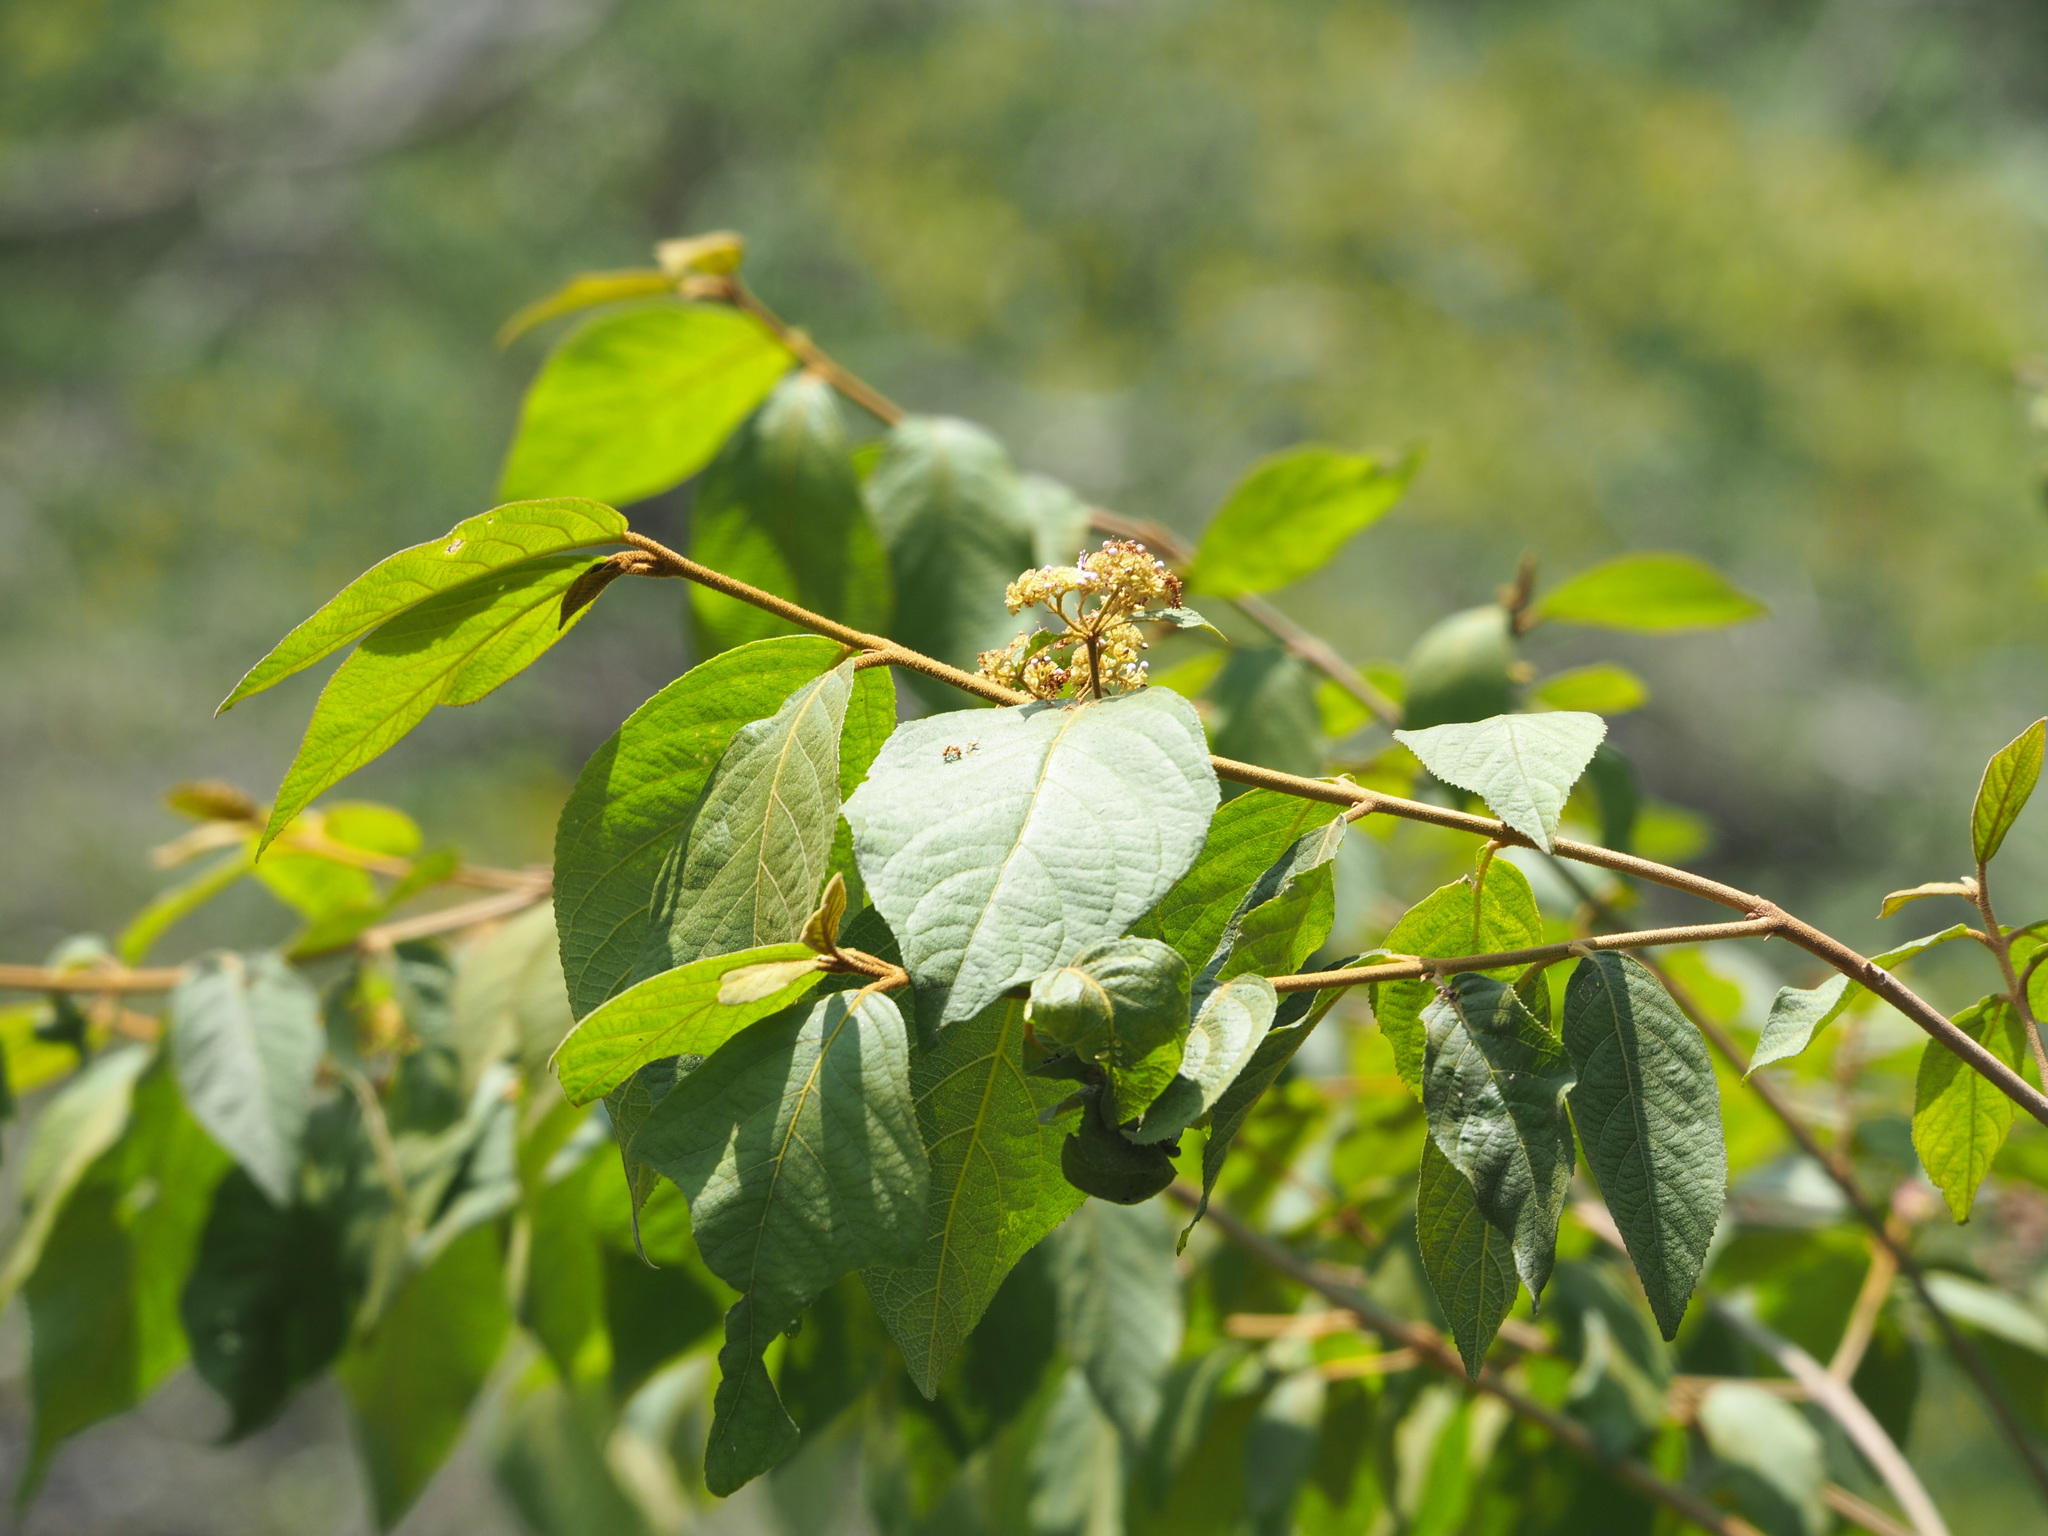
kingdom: Plantae
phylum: Tracheophyta
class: Magnoliopsida
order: Lamiales
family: Lamiaceae
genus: Callicarpa
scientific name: Callicarpa pedunculata
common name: Velvetleaf
